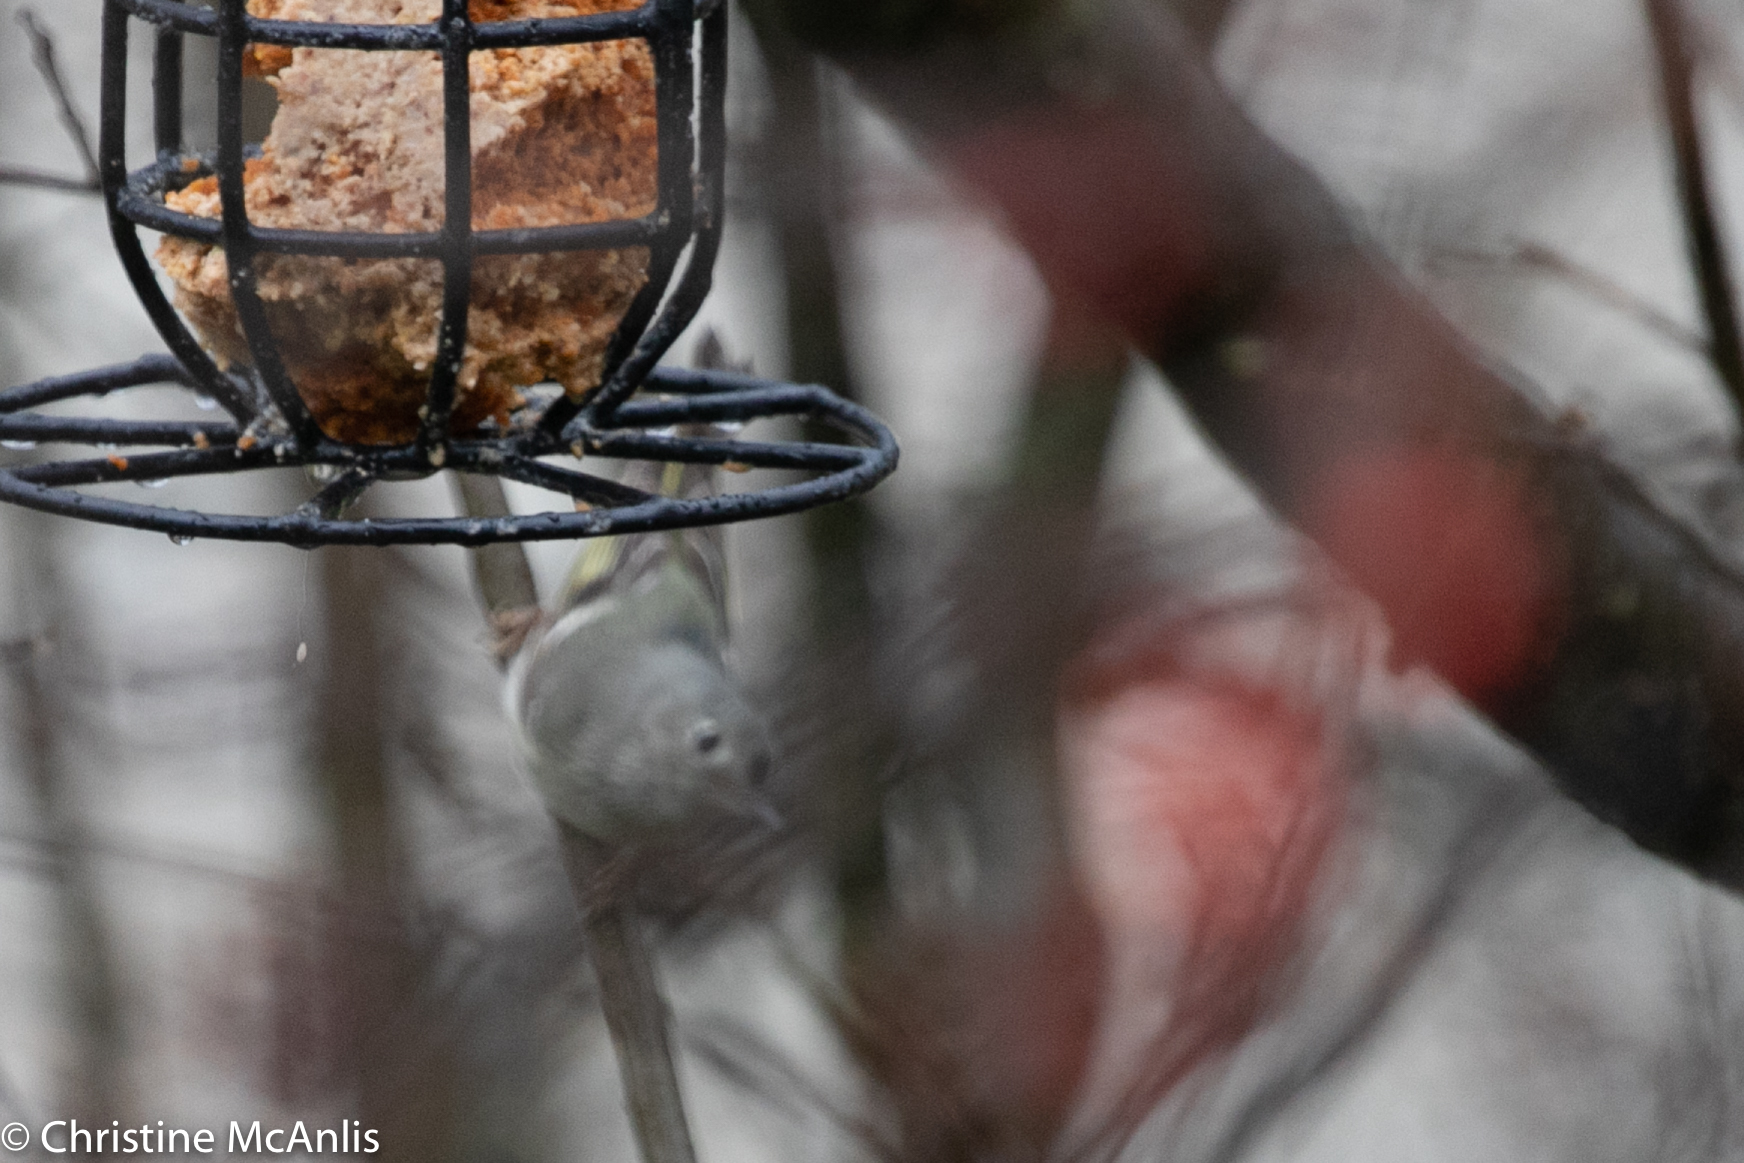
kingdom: Animalia
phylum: Chordata
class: Aves
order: Passeriformes
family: Regulidae
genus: Regulus
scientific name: Regulus calendula
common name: Ruby-crowned kinglet
